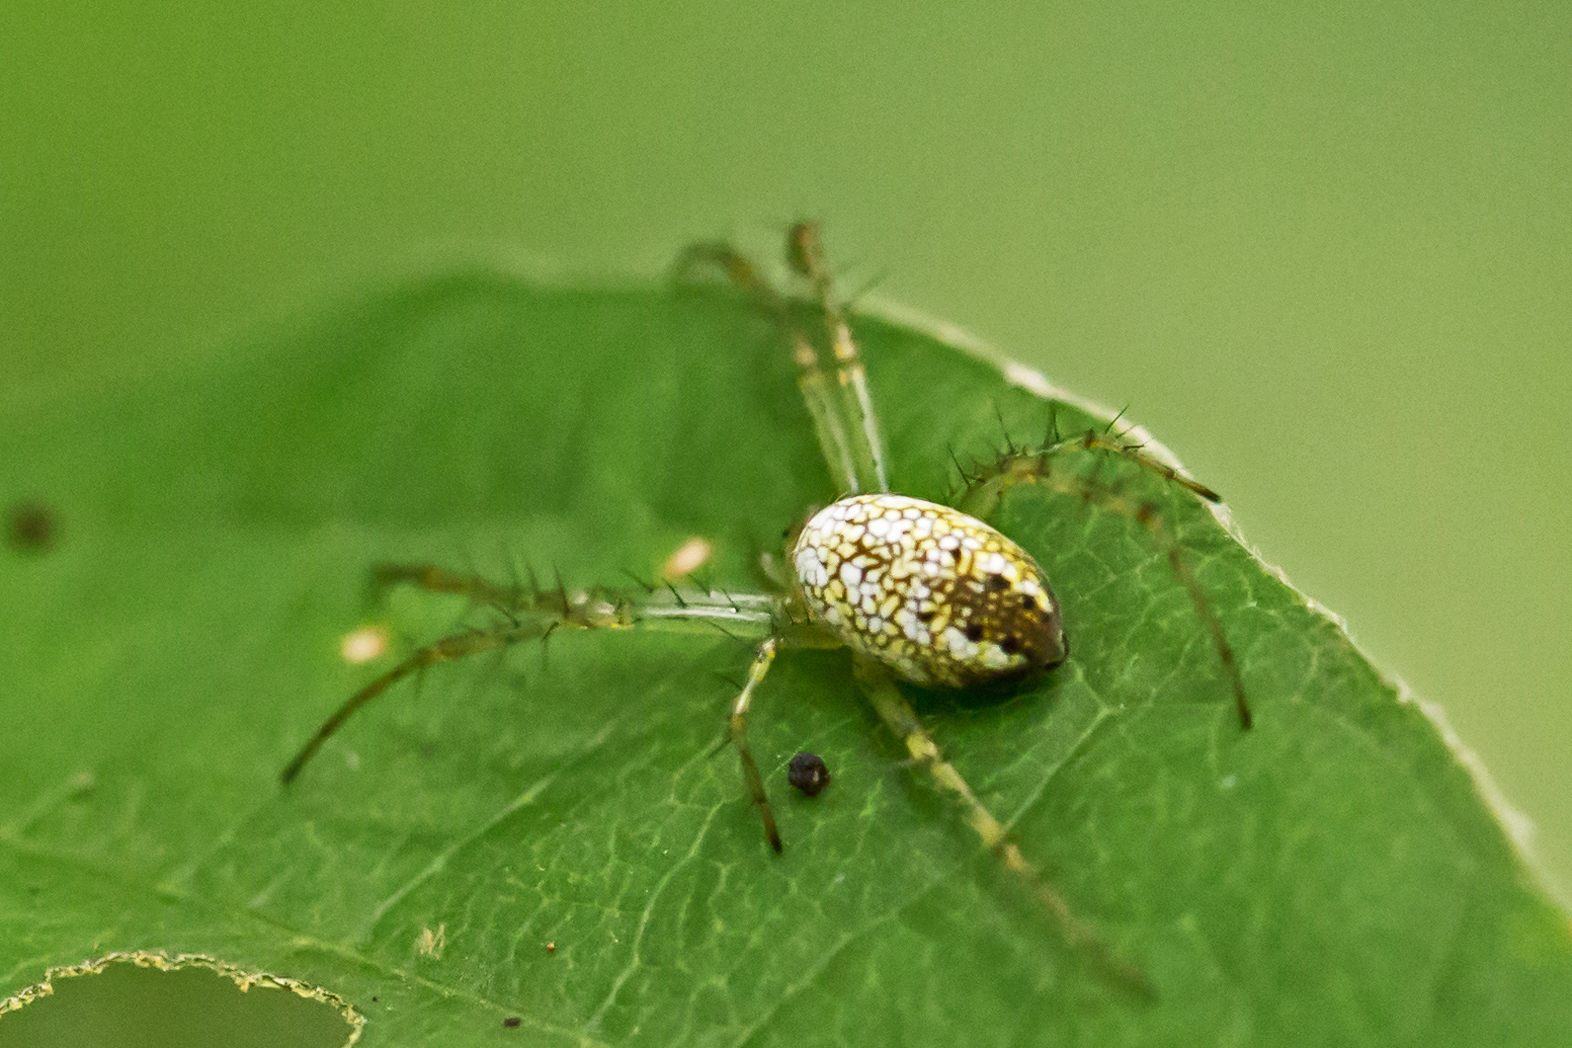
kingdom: Animalia
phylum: Arthropoda
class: Arachnida
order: Araneae
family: Araneidae
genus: Mangora
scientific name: Mangora maculata
